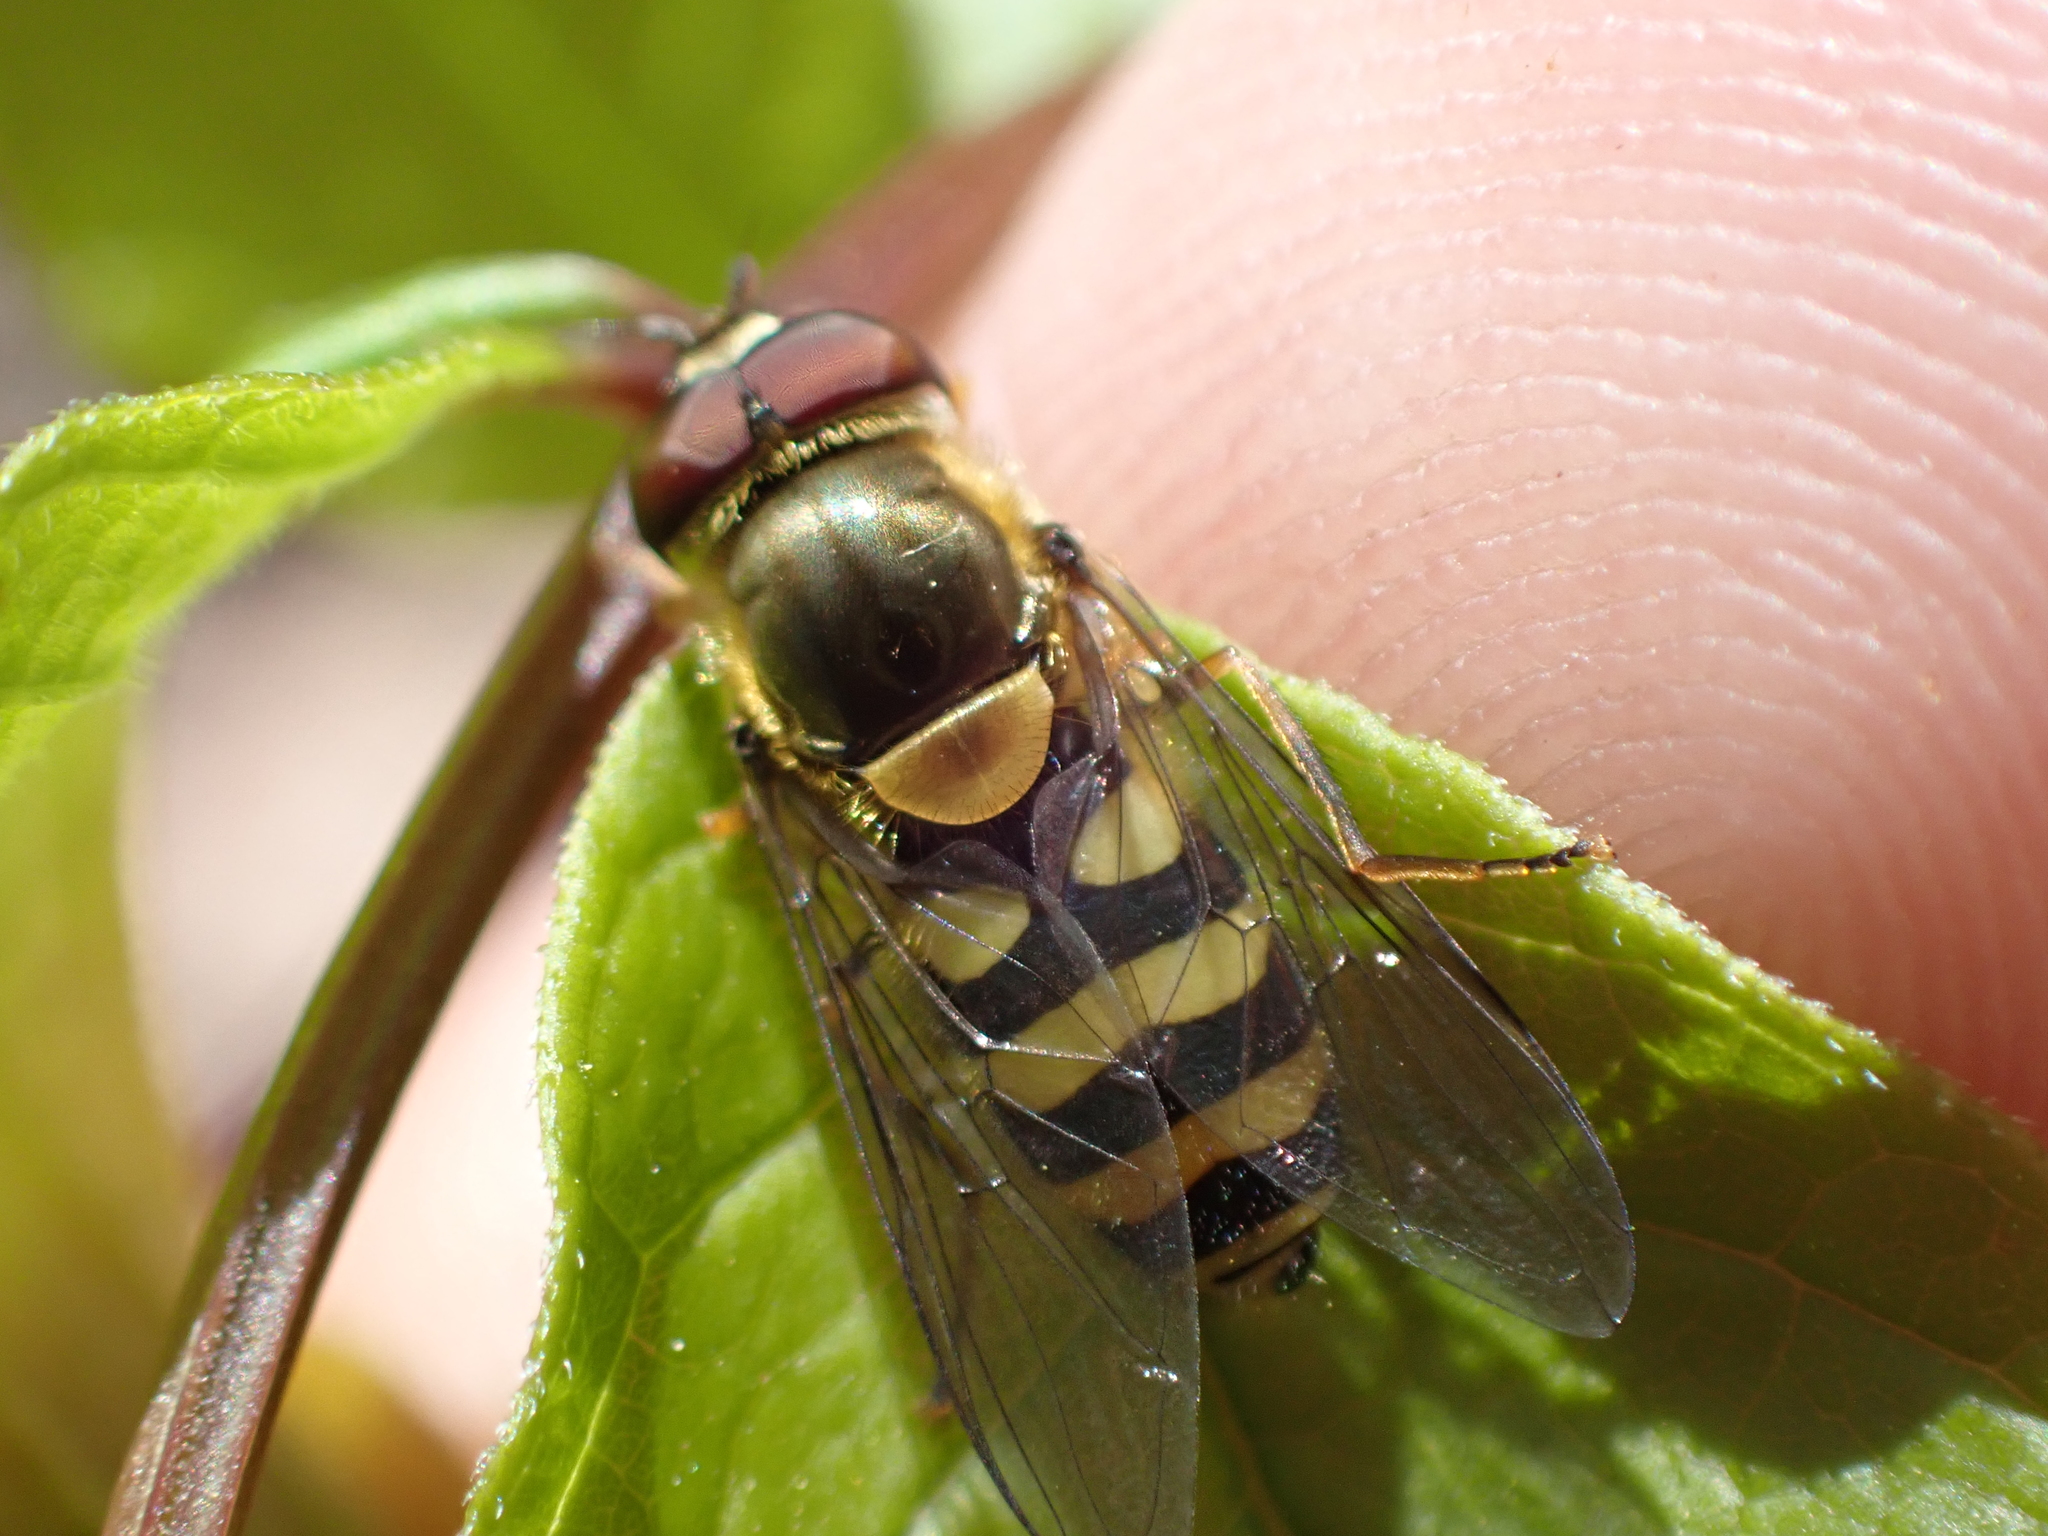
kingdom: Animalia
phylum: Arthropoda
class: Insecta
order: Diptera
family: Syrphidae
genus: Syrphus
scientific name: Syrphus
